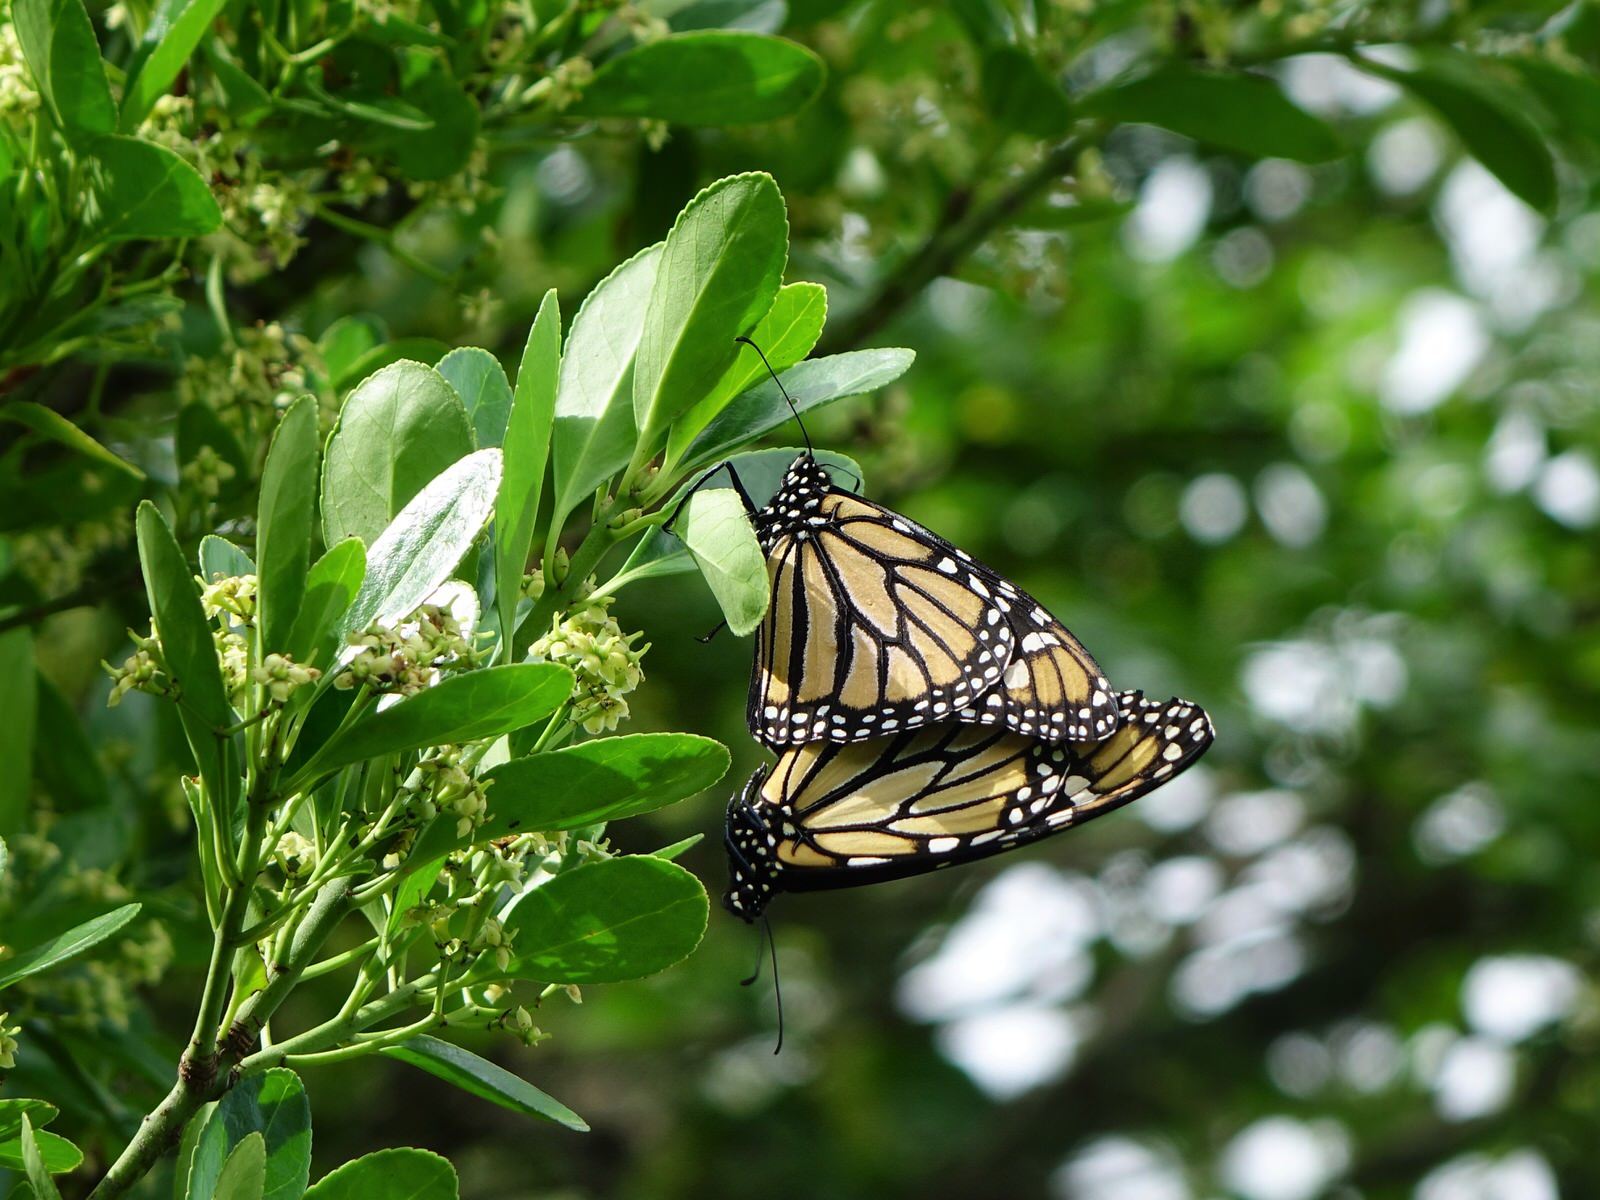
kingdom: Animalia
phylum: Arthropoda
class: Insecta
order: Lepidoptera
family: Nymphalidae
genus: Danaus
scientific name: Danaus plexippus
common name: Monarch
